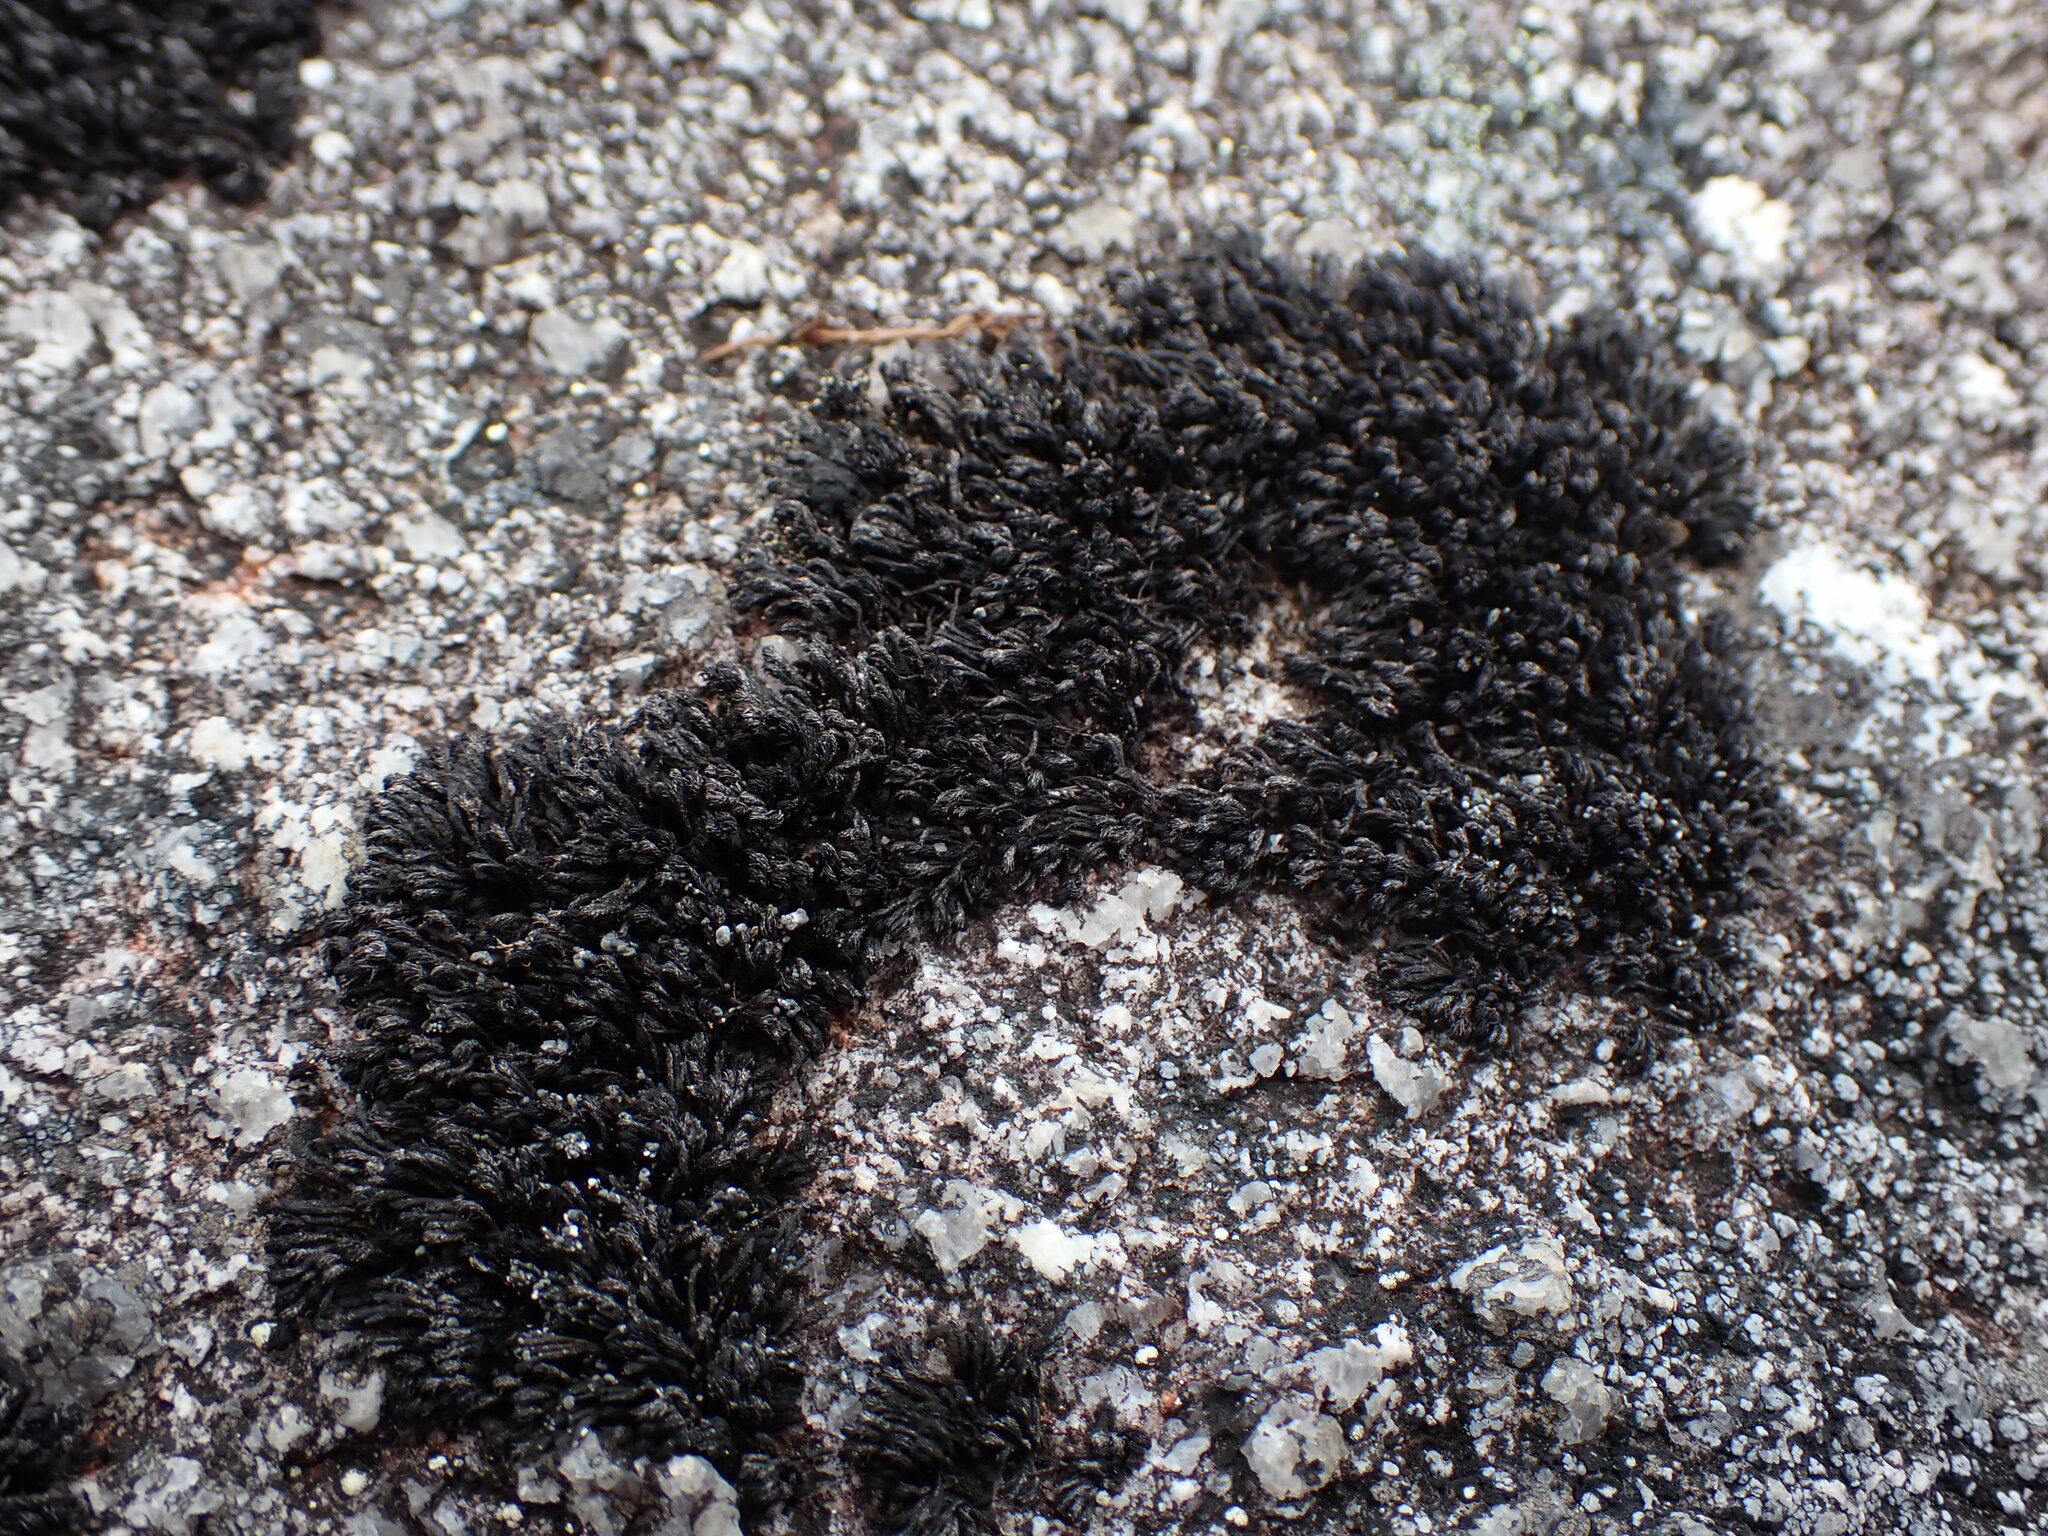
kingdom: Plantae
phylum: Bryophyta
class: Andreaeopsida
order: Andreaeales
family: Andreaeaceae
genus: Andreaea
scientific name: Andreaea megistospora
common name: Big-spored rock-moss
